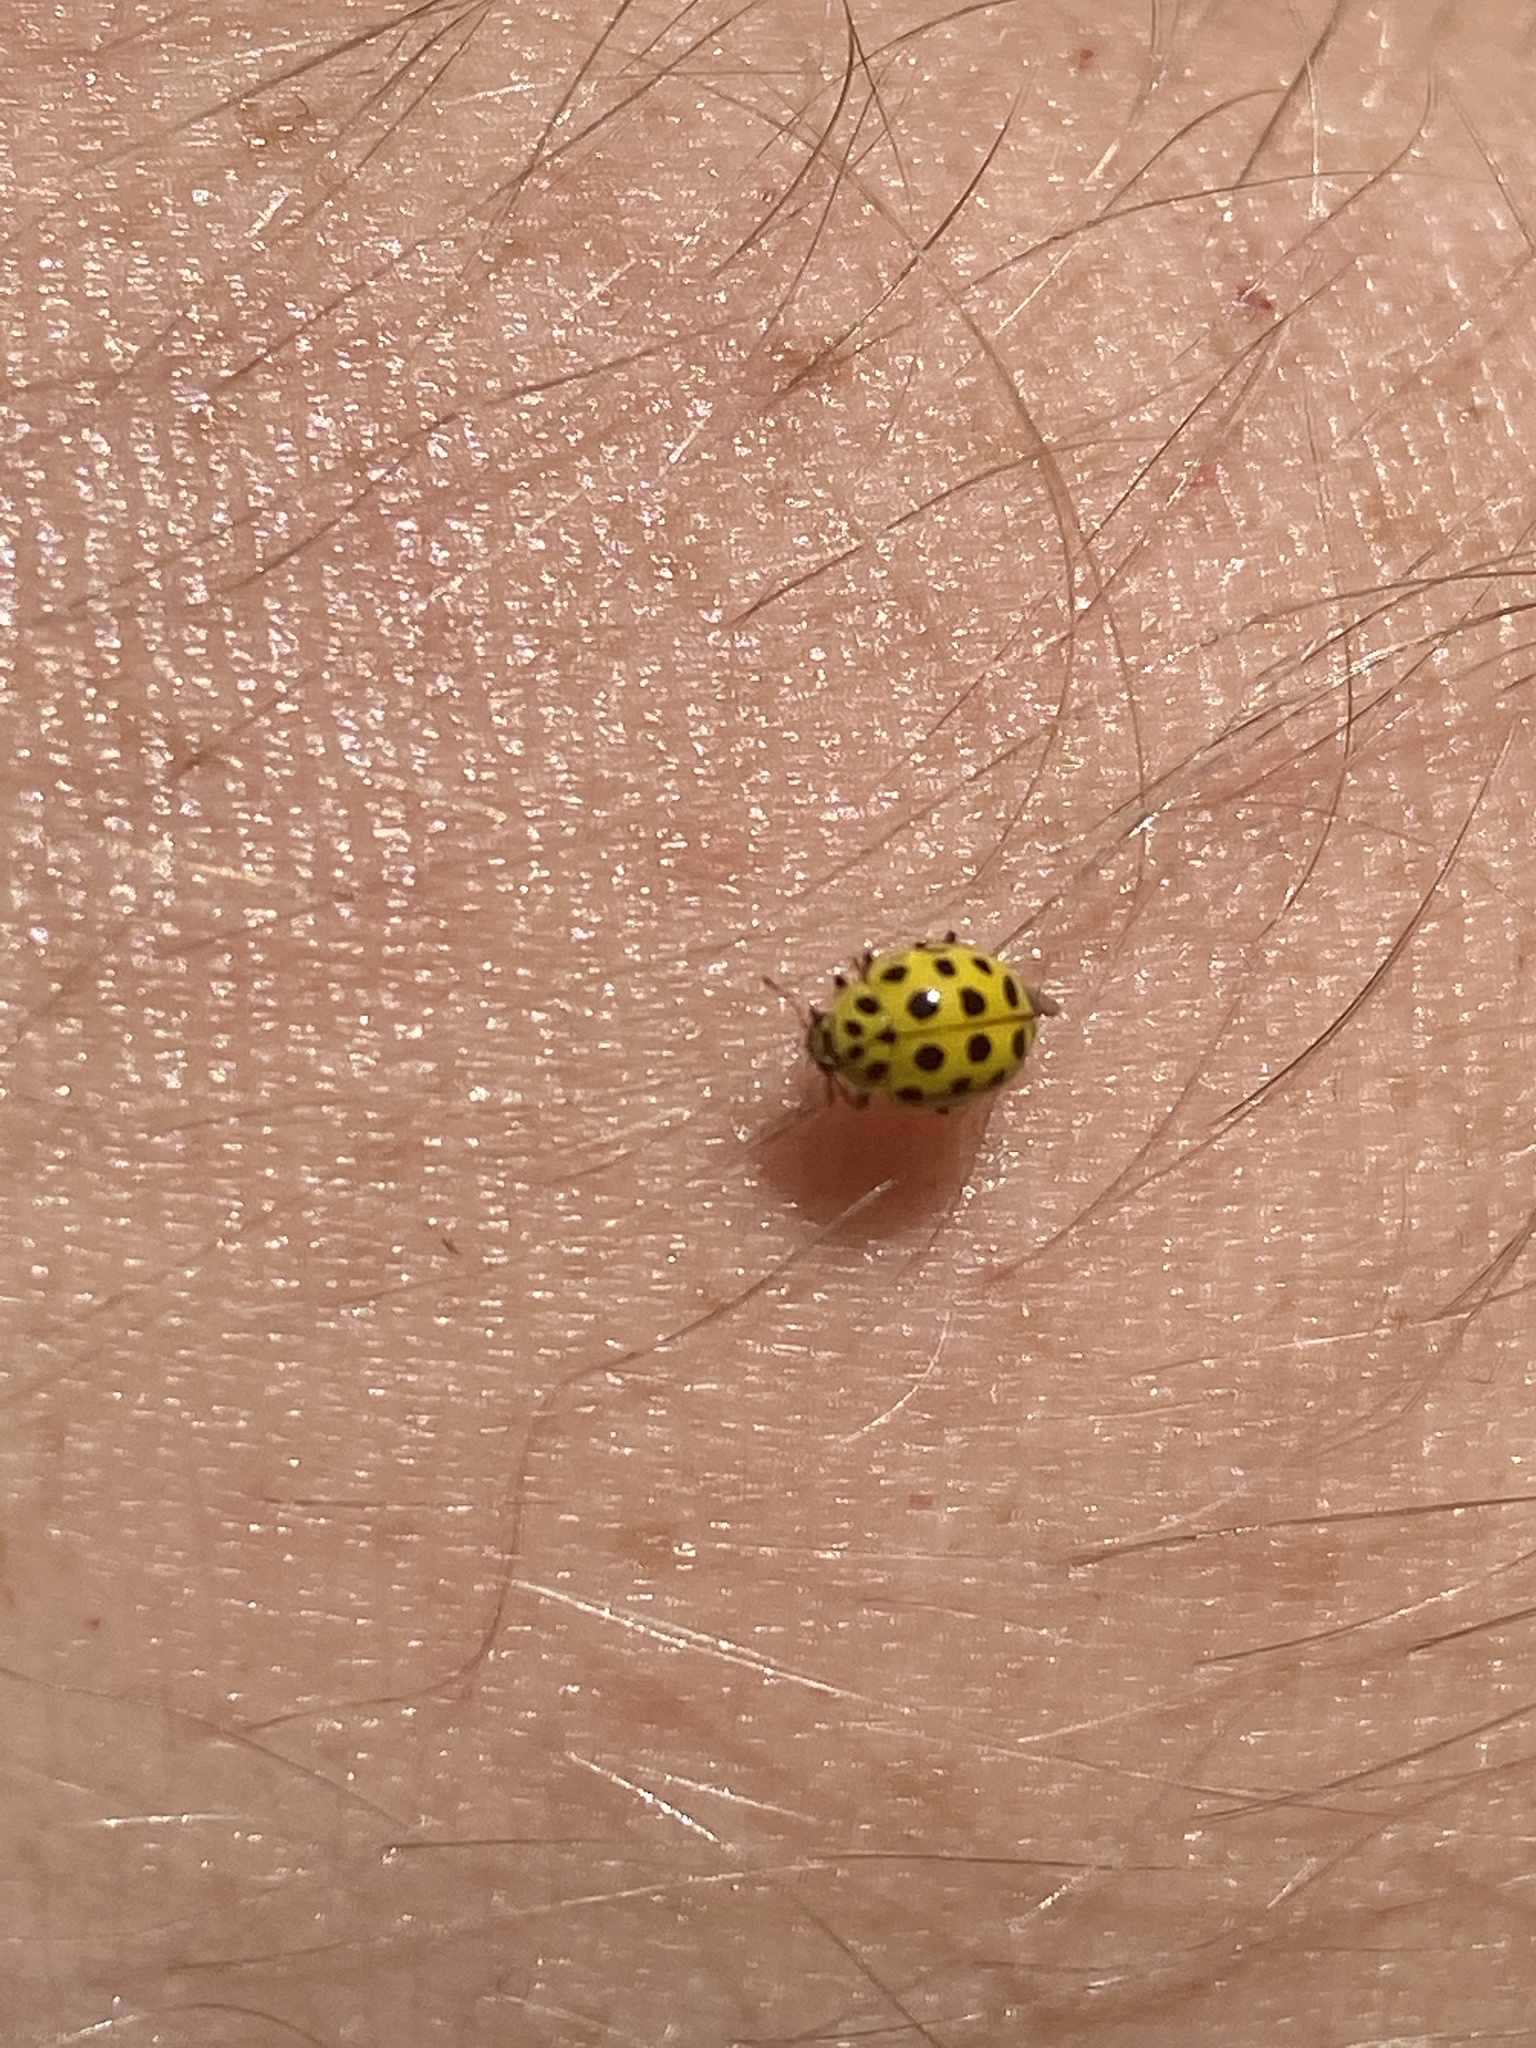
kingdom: Animalia
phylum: Arthropoda
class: Insecta
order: Coleoptera
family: Coccinellidae
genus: Psyllobora
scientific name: Psyllobora vigintiduopunctata
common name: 22-spot ladybird
